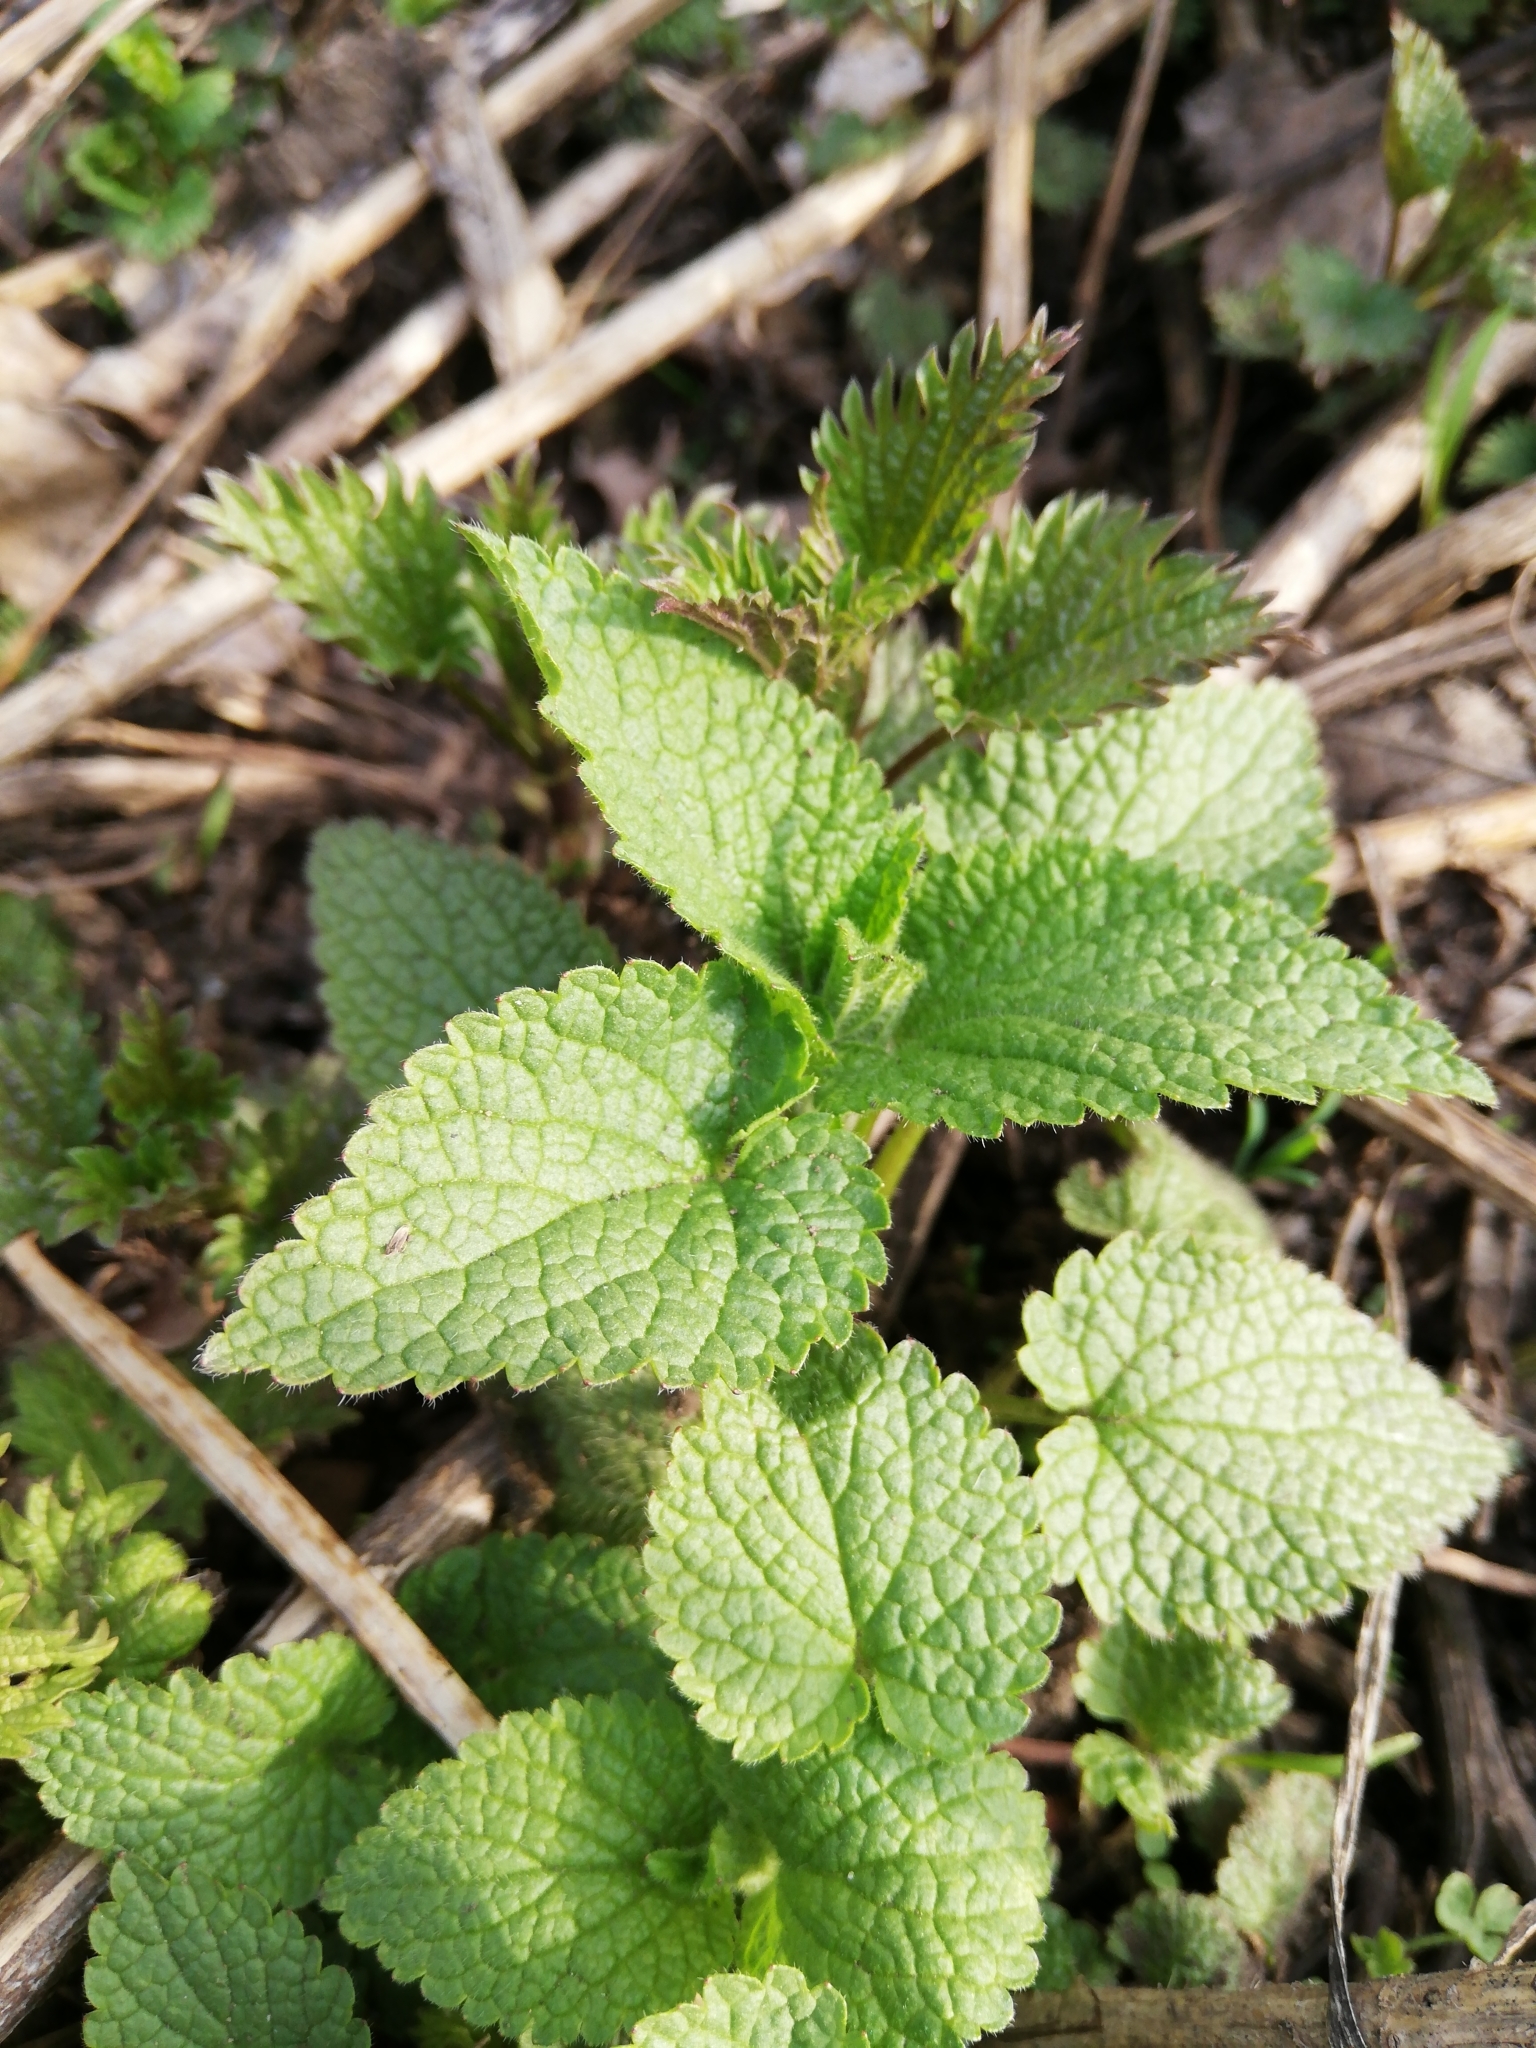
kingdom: Plantae
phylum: Tracheophyta
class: Magnoliopsida
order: Lamiales
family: Lamiaceae
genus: Lamium
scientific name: Lamium album
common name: White dead-nettle
